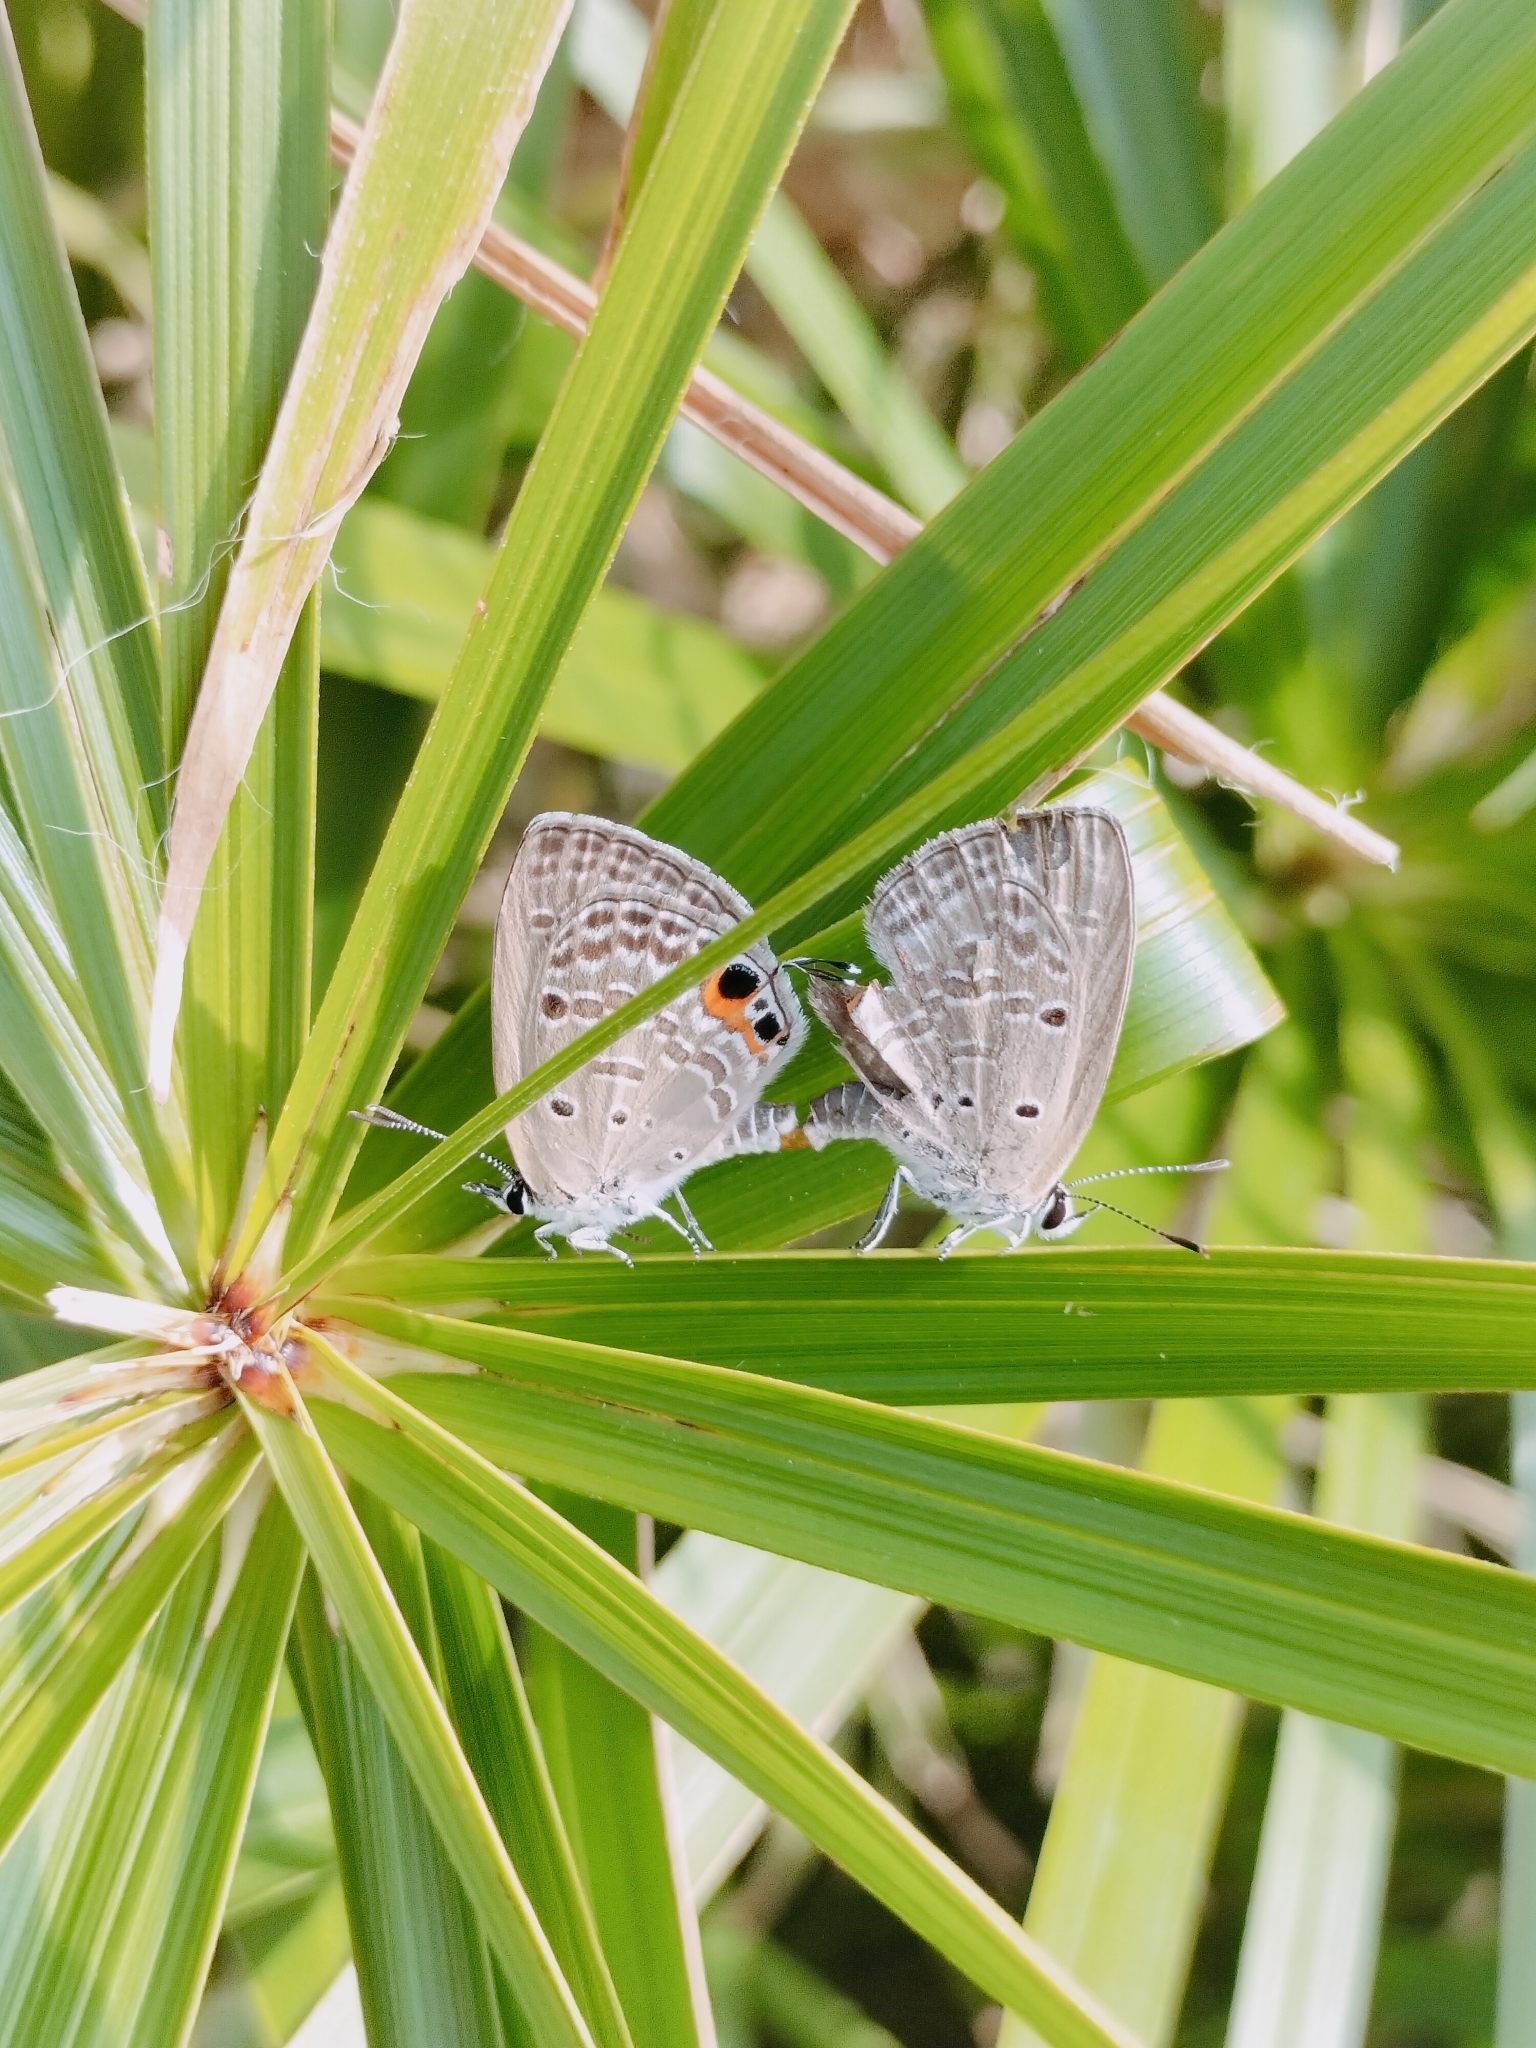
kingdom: Animalia
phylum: Arthropoda
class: Insecta
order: Lepidoptera
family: Lycaenidae
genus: Luthrodes
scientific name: Luthrodes pandava
